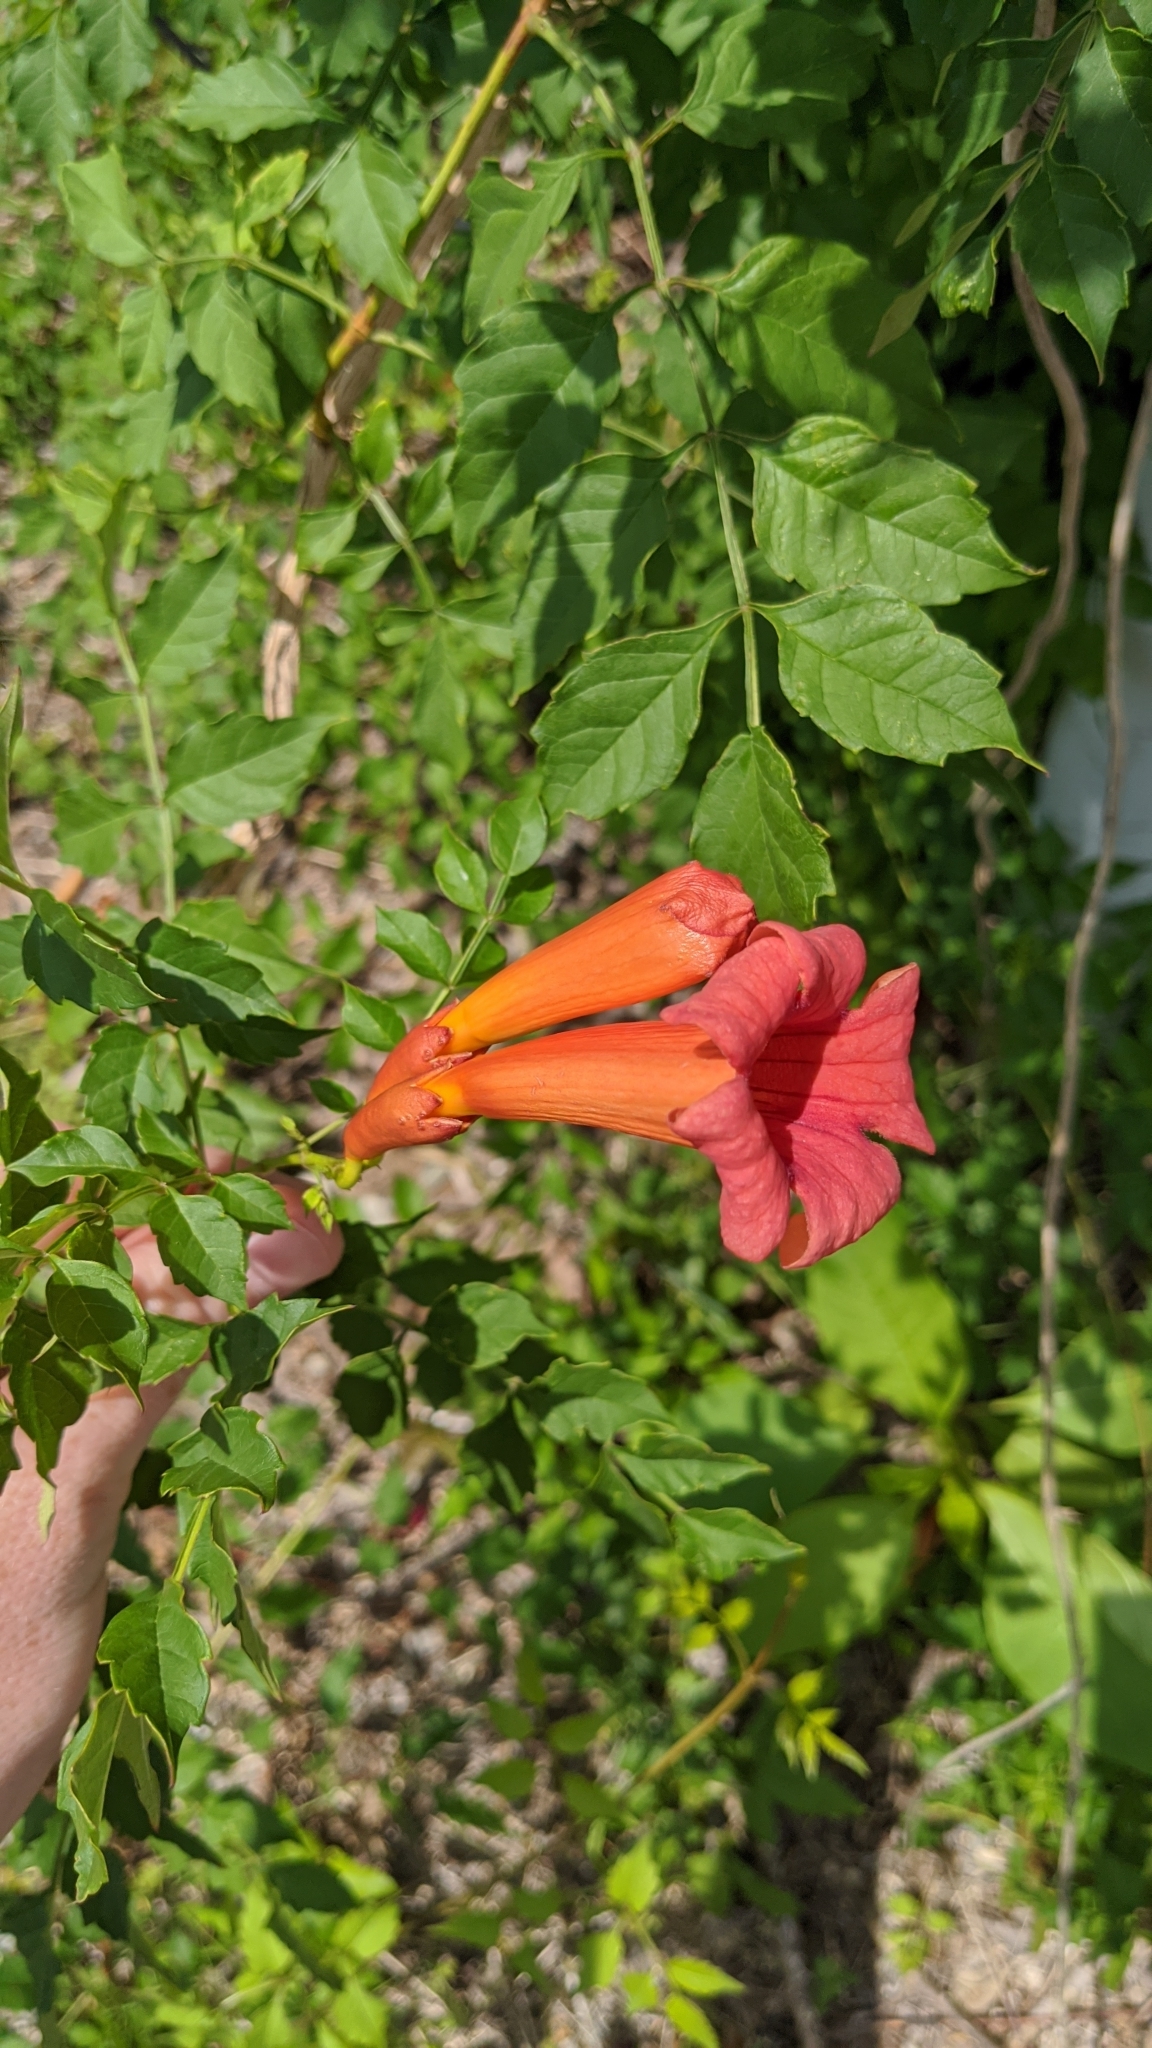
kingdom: Plantae
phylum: Tracheophyta
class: Magnoliopsida
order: Lamiales
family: Bignoniaceae
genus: Campsis
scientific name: Campsis radicans
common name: Trumpet-creeper
